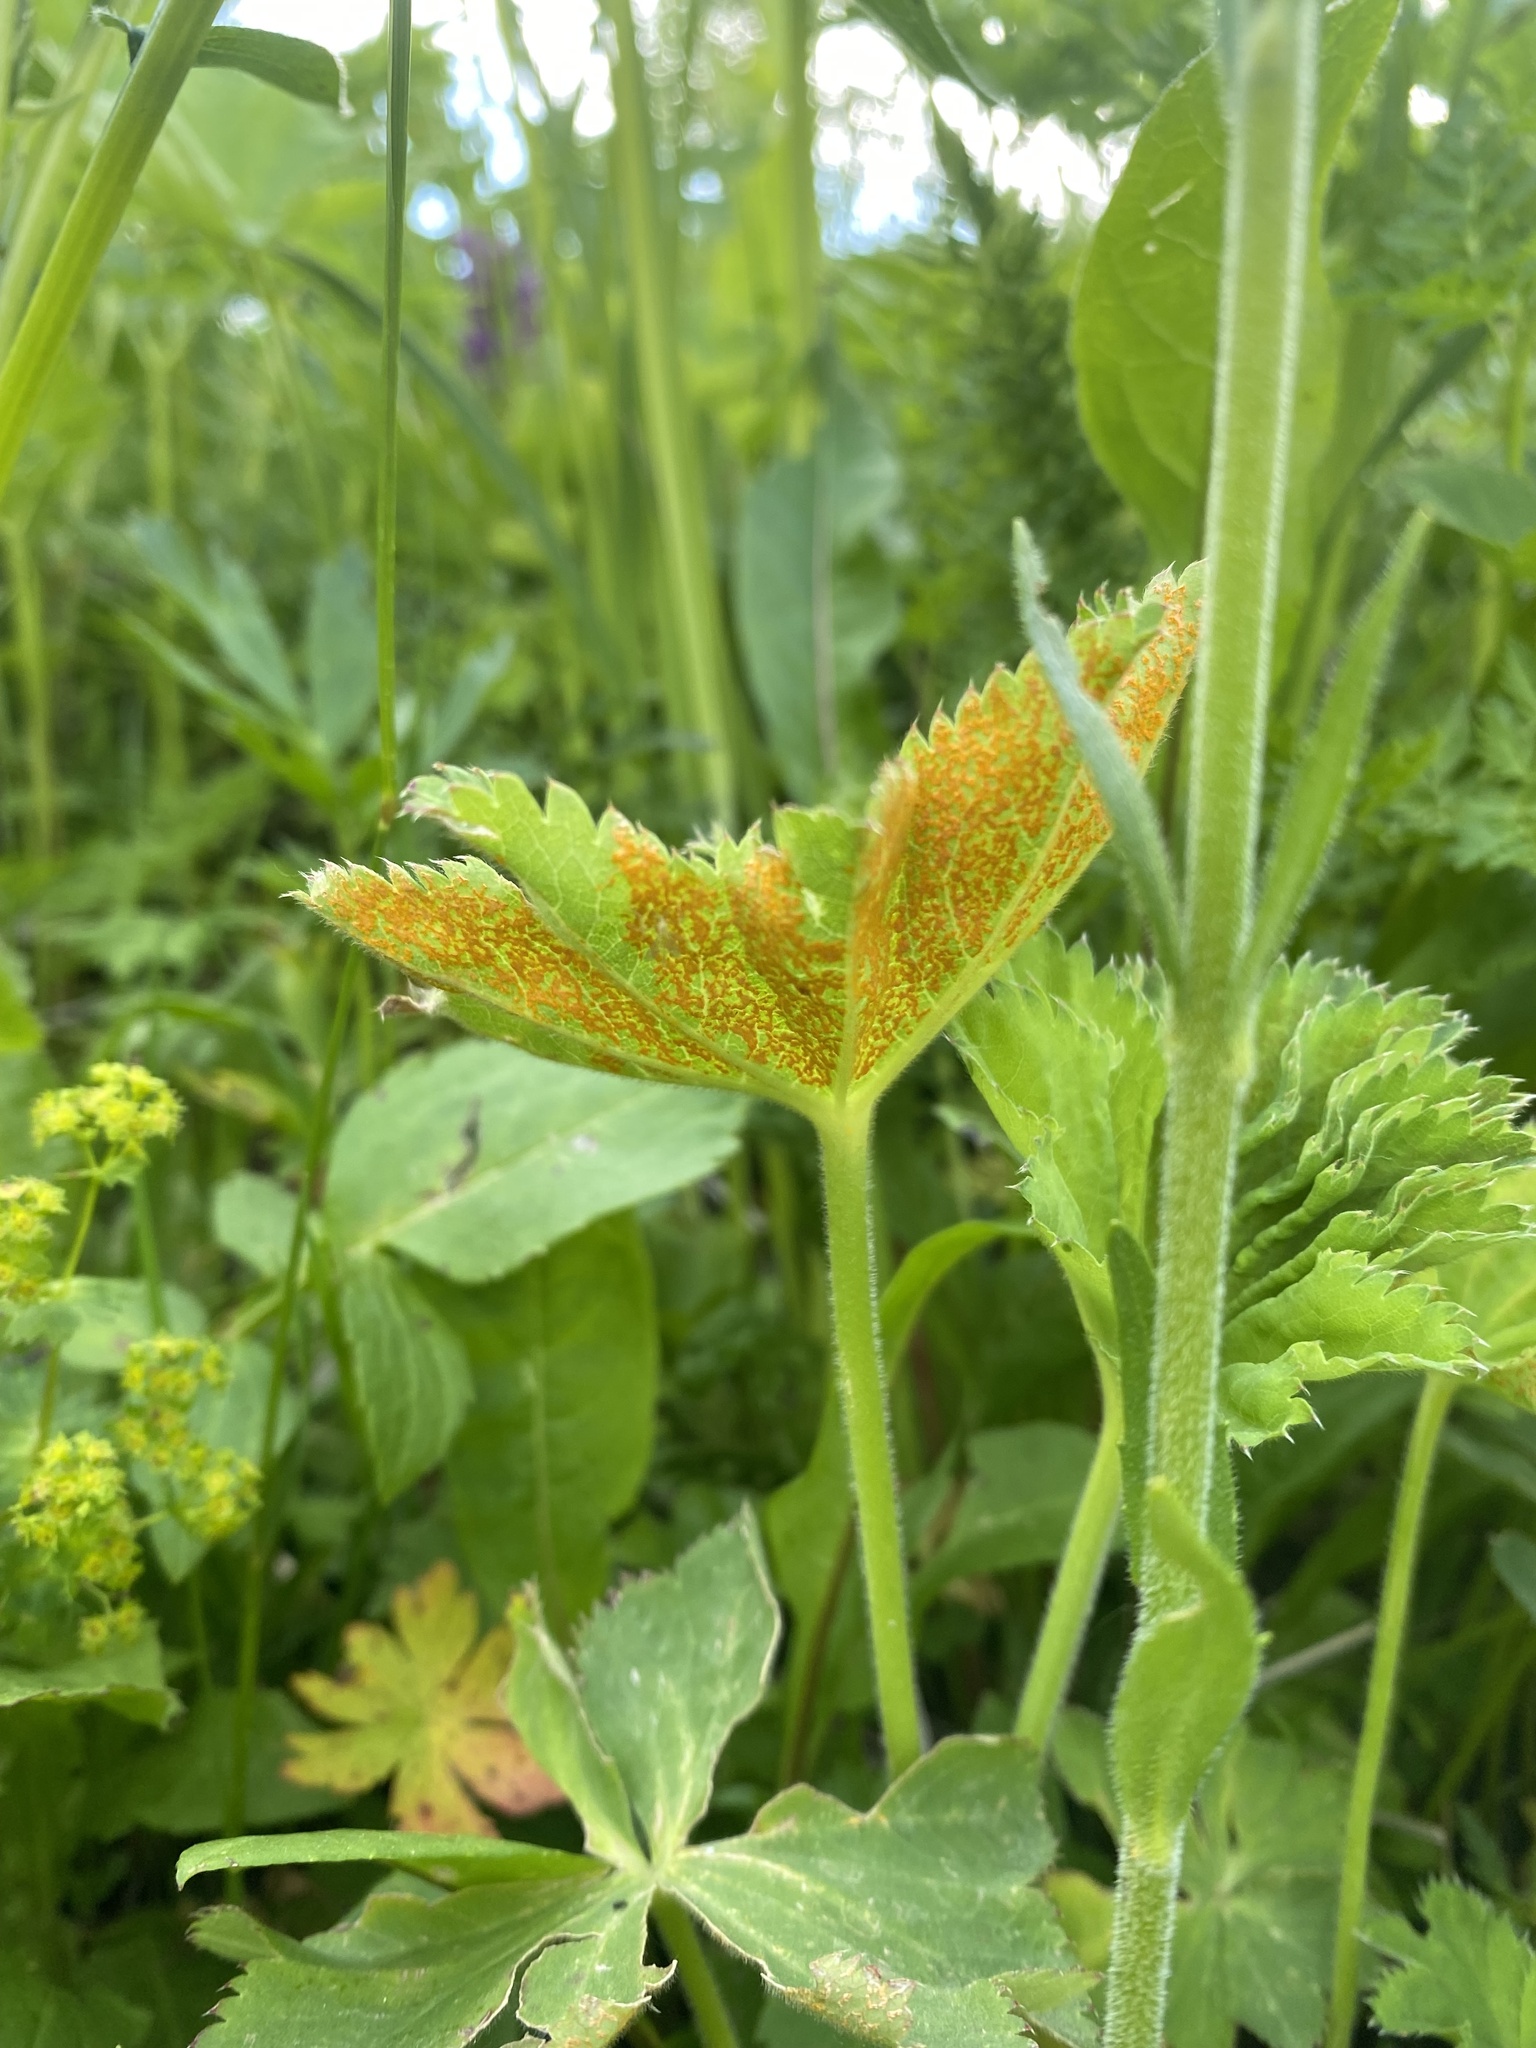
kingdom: Fungi
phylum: Basidiomycota
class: Pucciniomycetes
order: Pucciniales
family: Phragmidiaceae
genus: Trachyspora
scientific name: Trachyspora alchemillae
